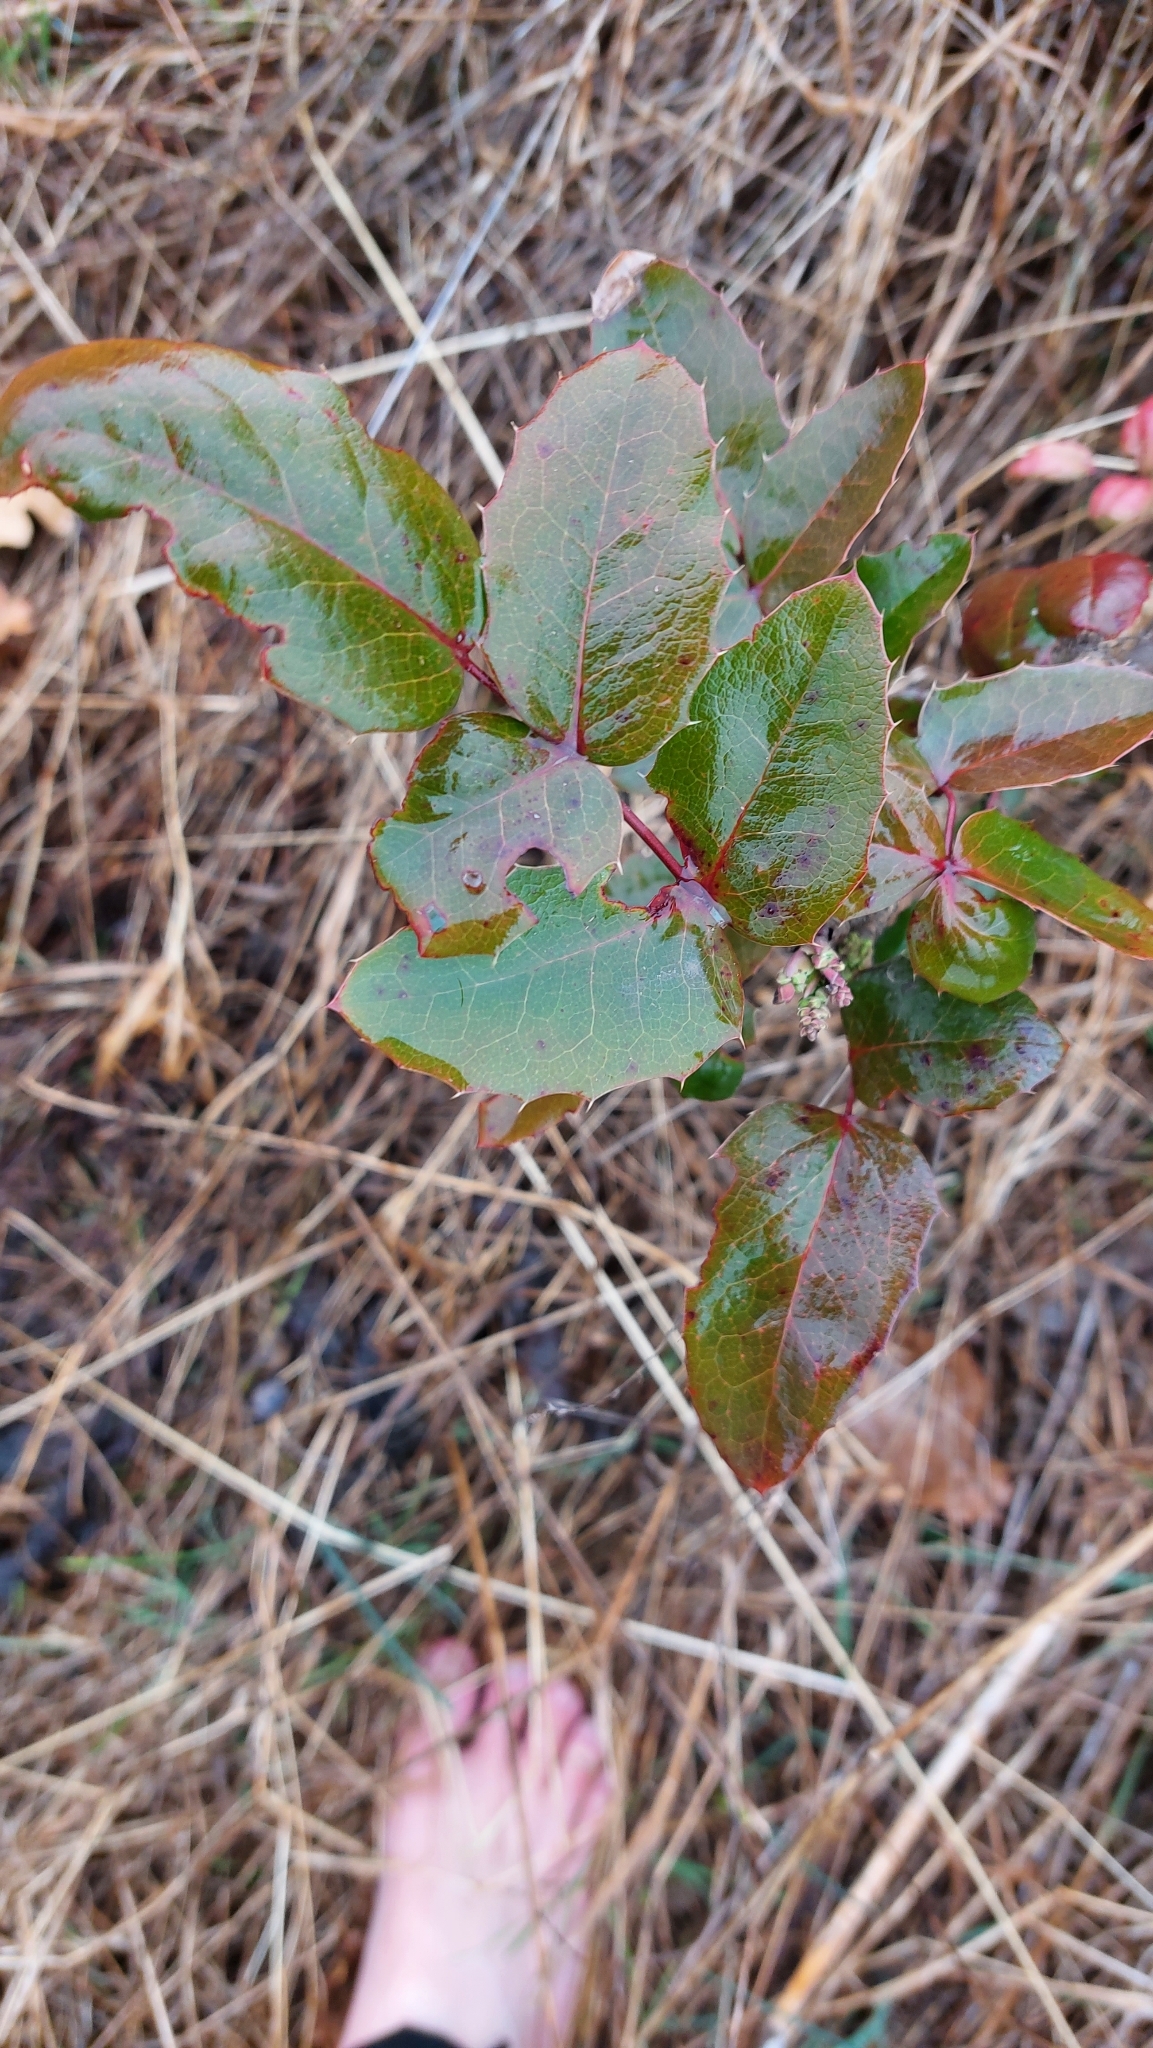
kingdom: Plantae
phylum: Tracheophyta
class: Magnoliopsida
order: Ranunculales
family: Berberidaceae
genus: Mahonia
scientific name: Mahonia aquifolium
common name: Oregon-grape
